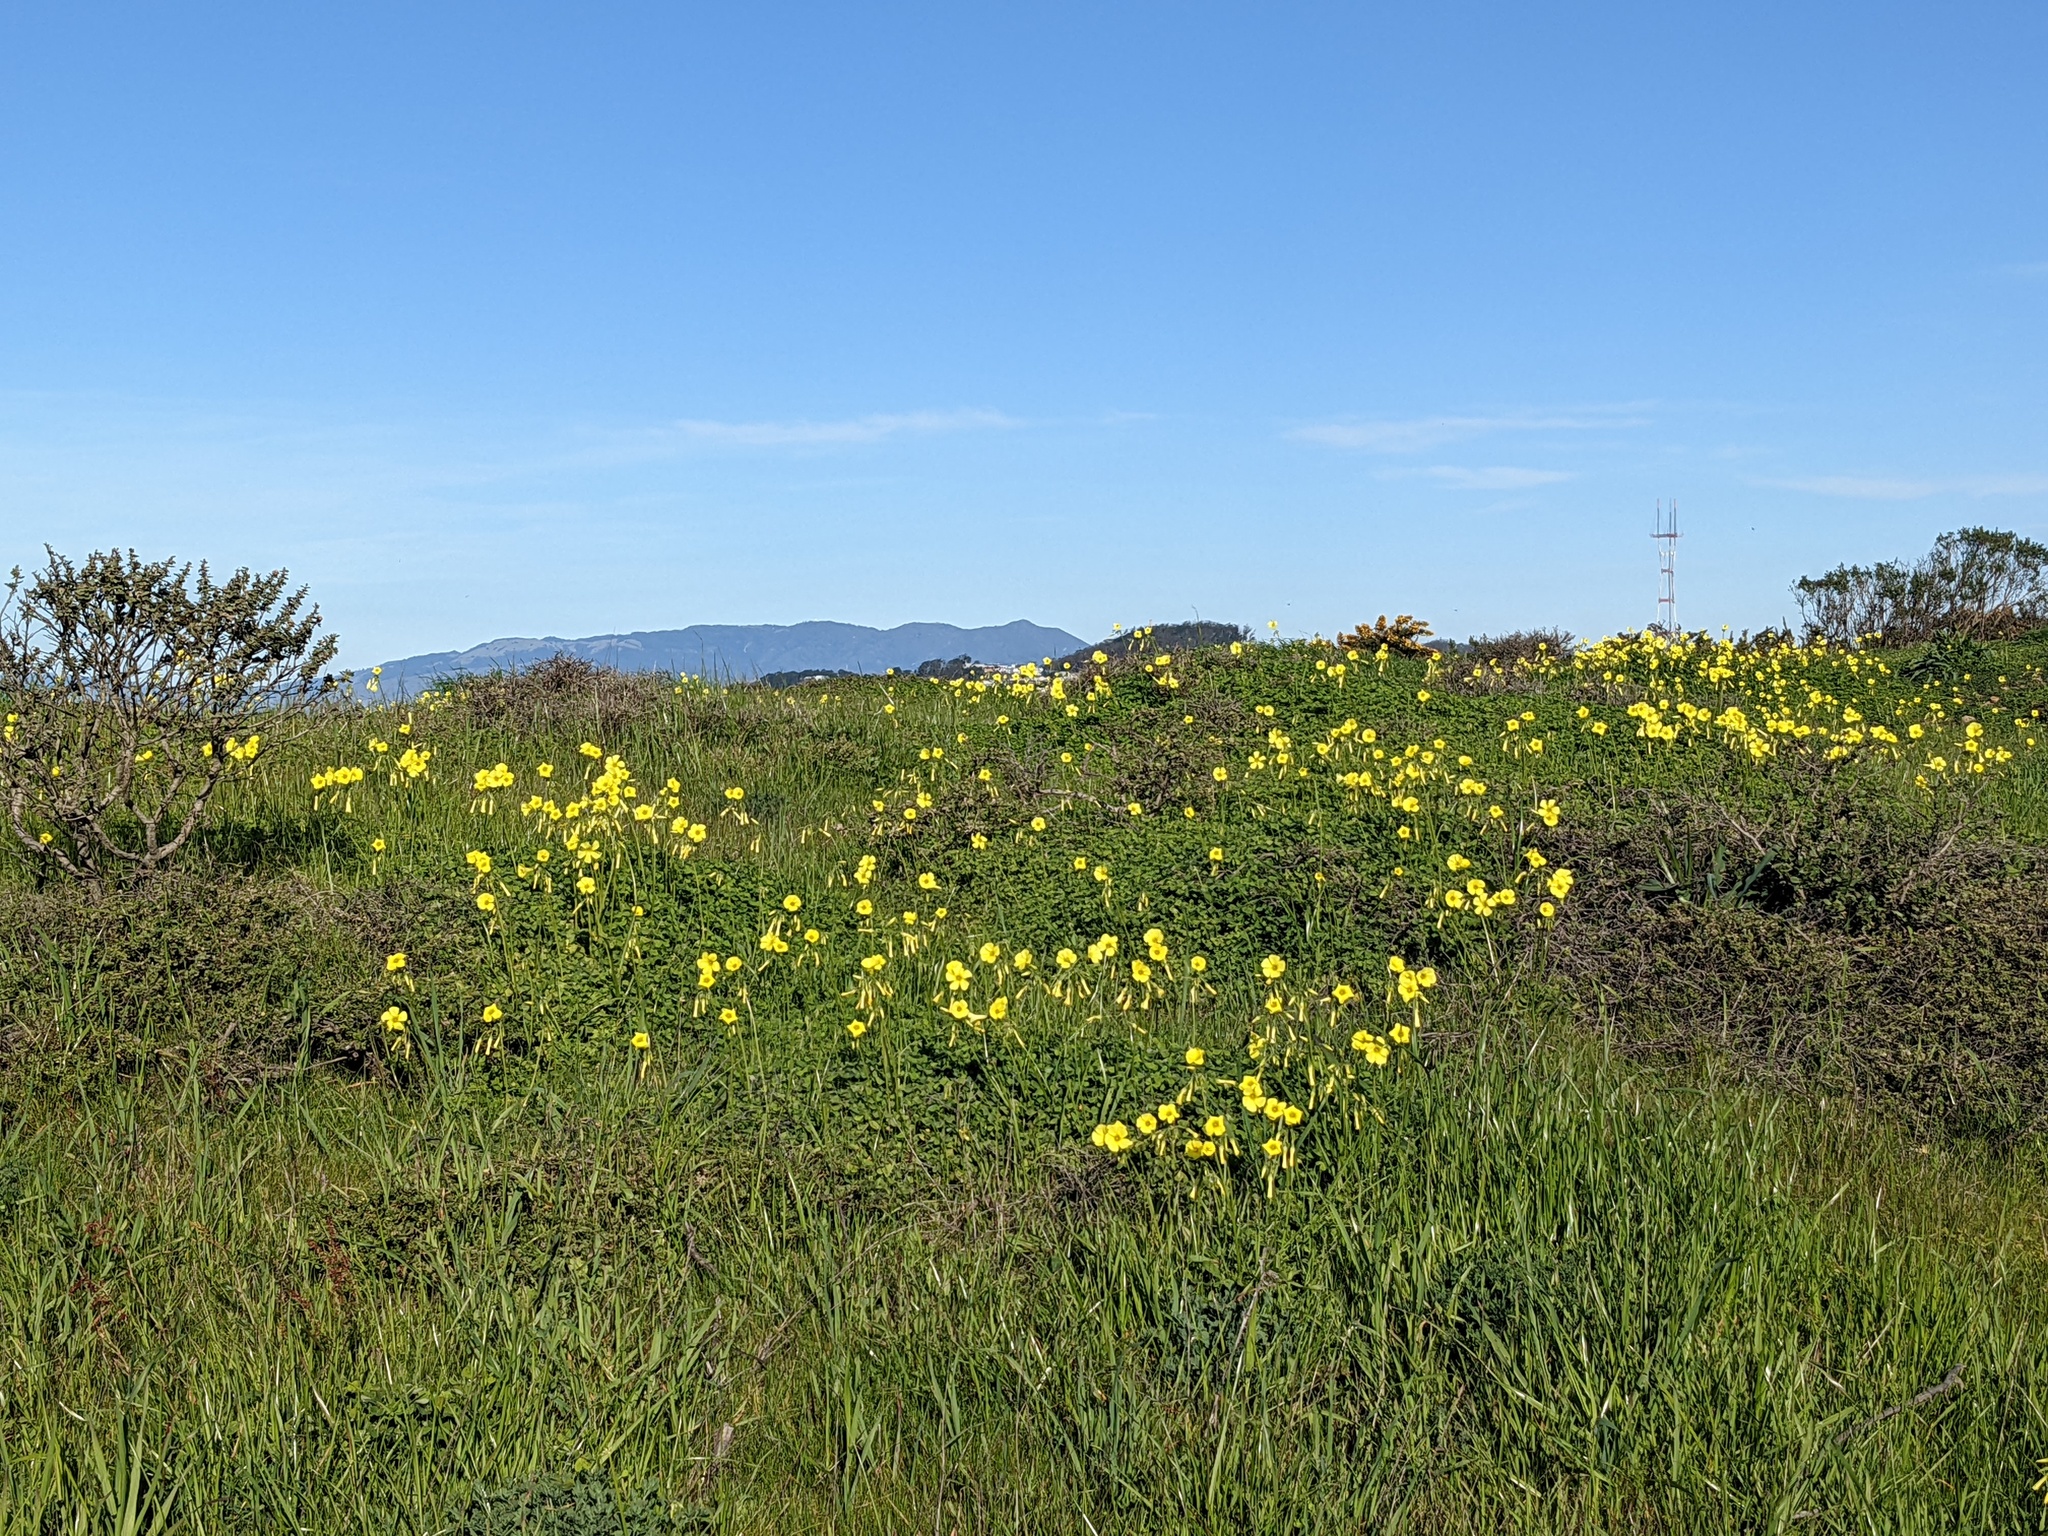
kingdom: Plantae
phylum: Tracheophyta
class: Magnoliopsida
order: Oxalidales
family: Oxalidaceae
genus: Oxalis
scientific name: Oxalis pes-caprae
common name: Bermuda-buttercup
